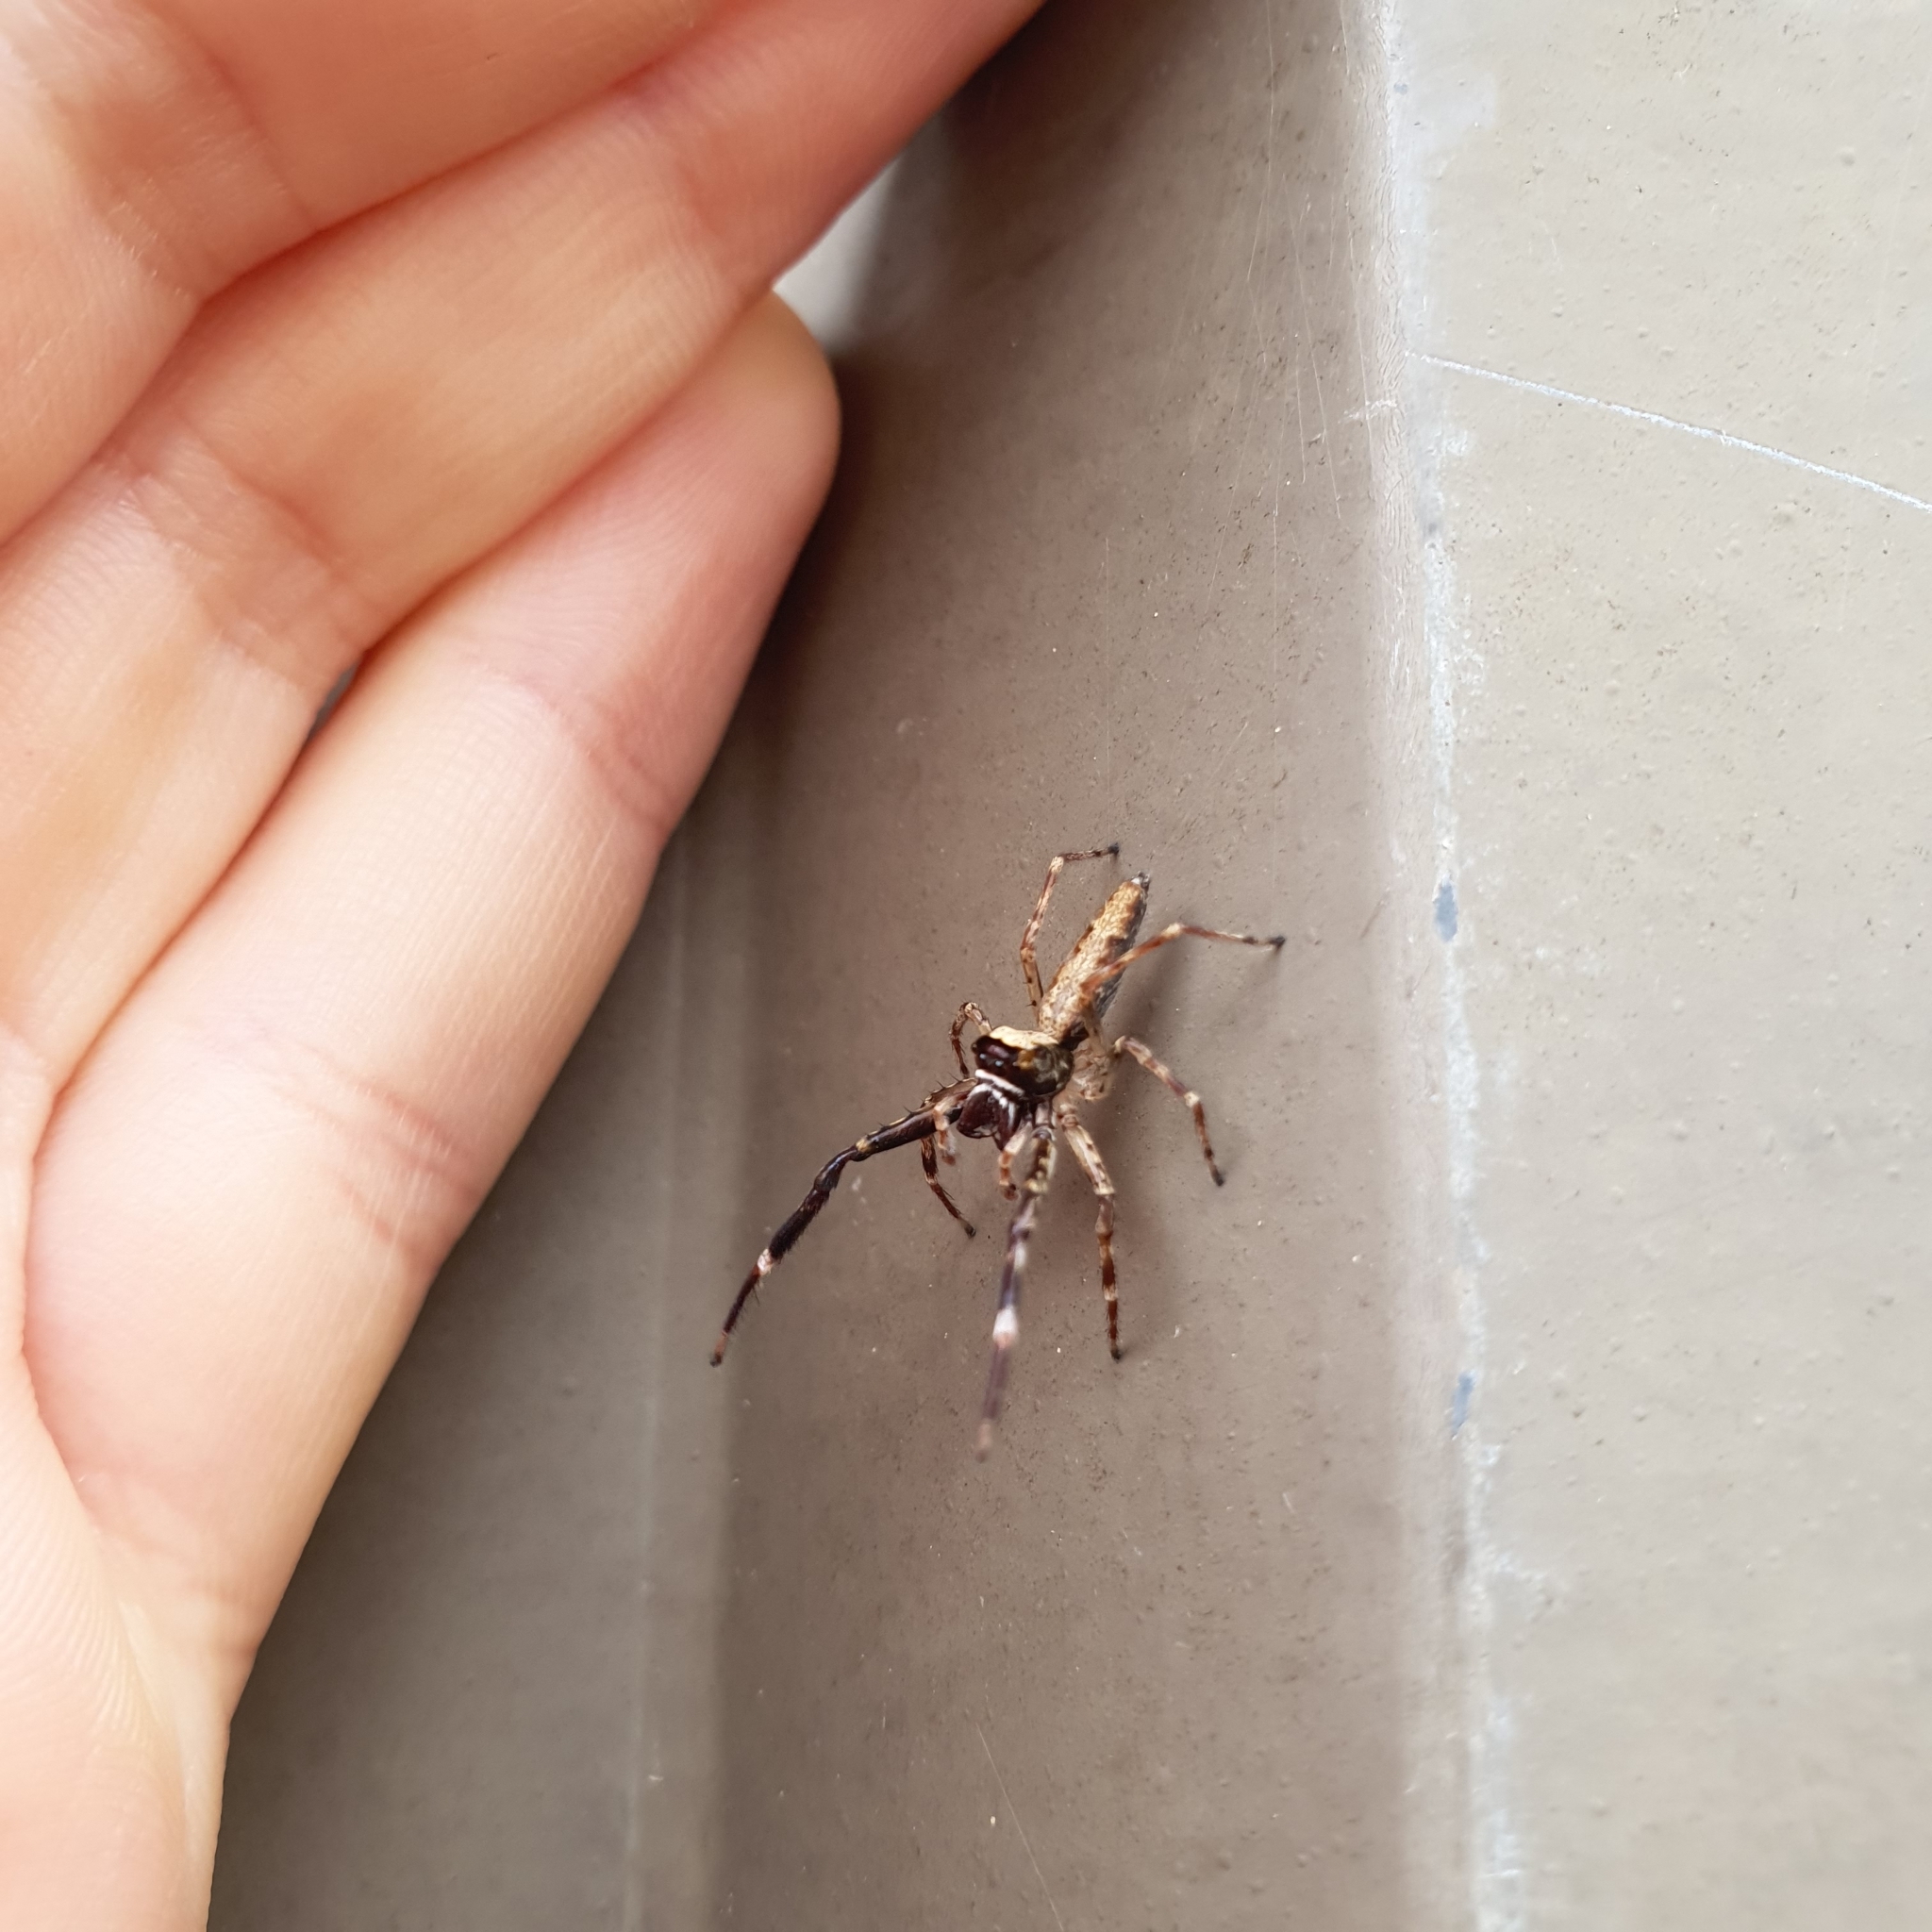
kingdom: Animalia
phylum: Arthropoda
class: Arachnida
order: Araneae
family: Salticidae
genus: Helpis
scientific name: Helpis minitabunda
